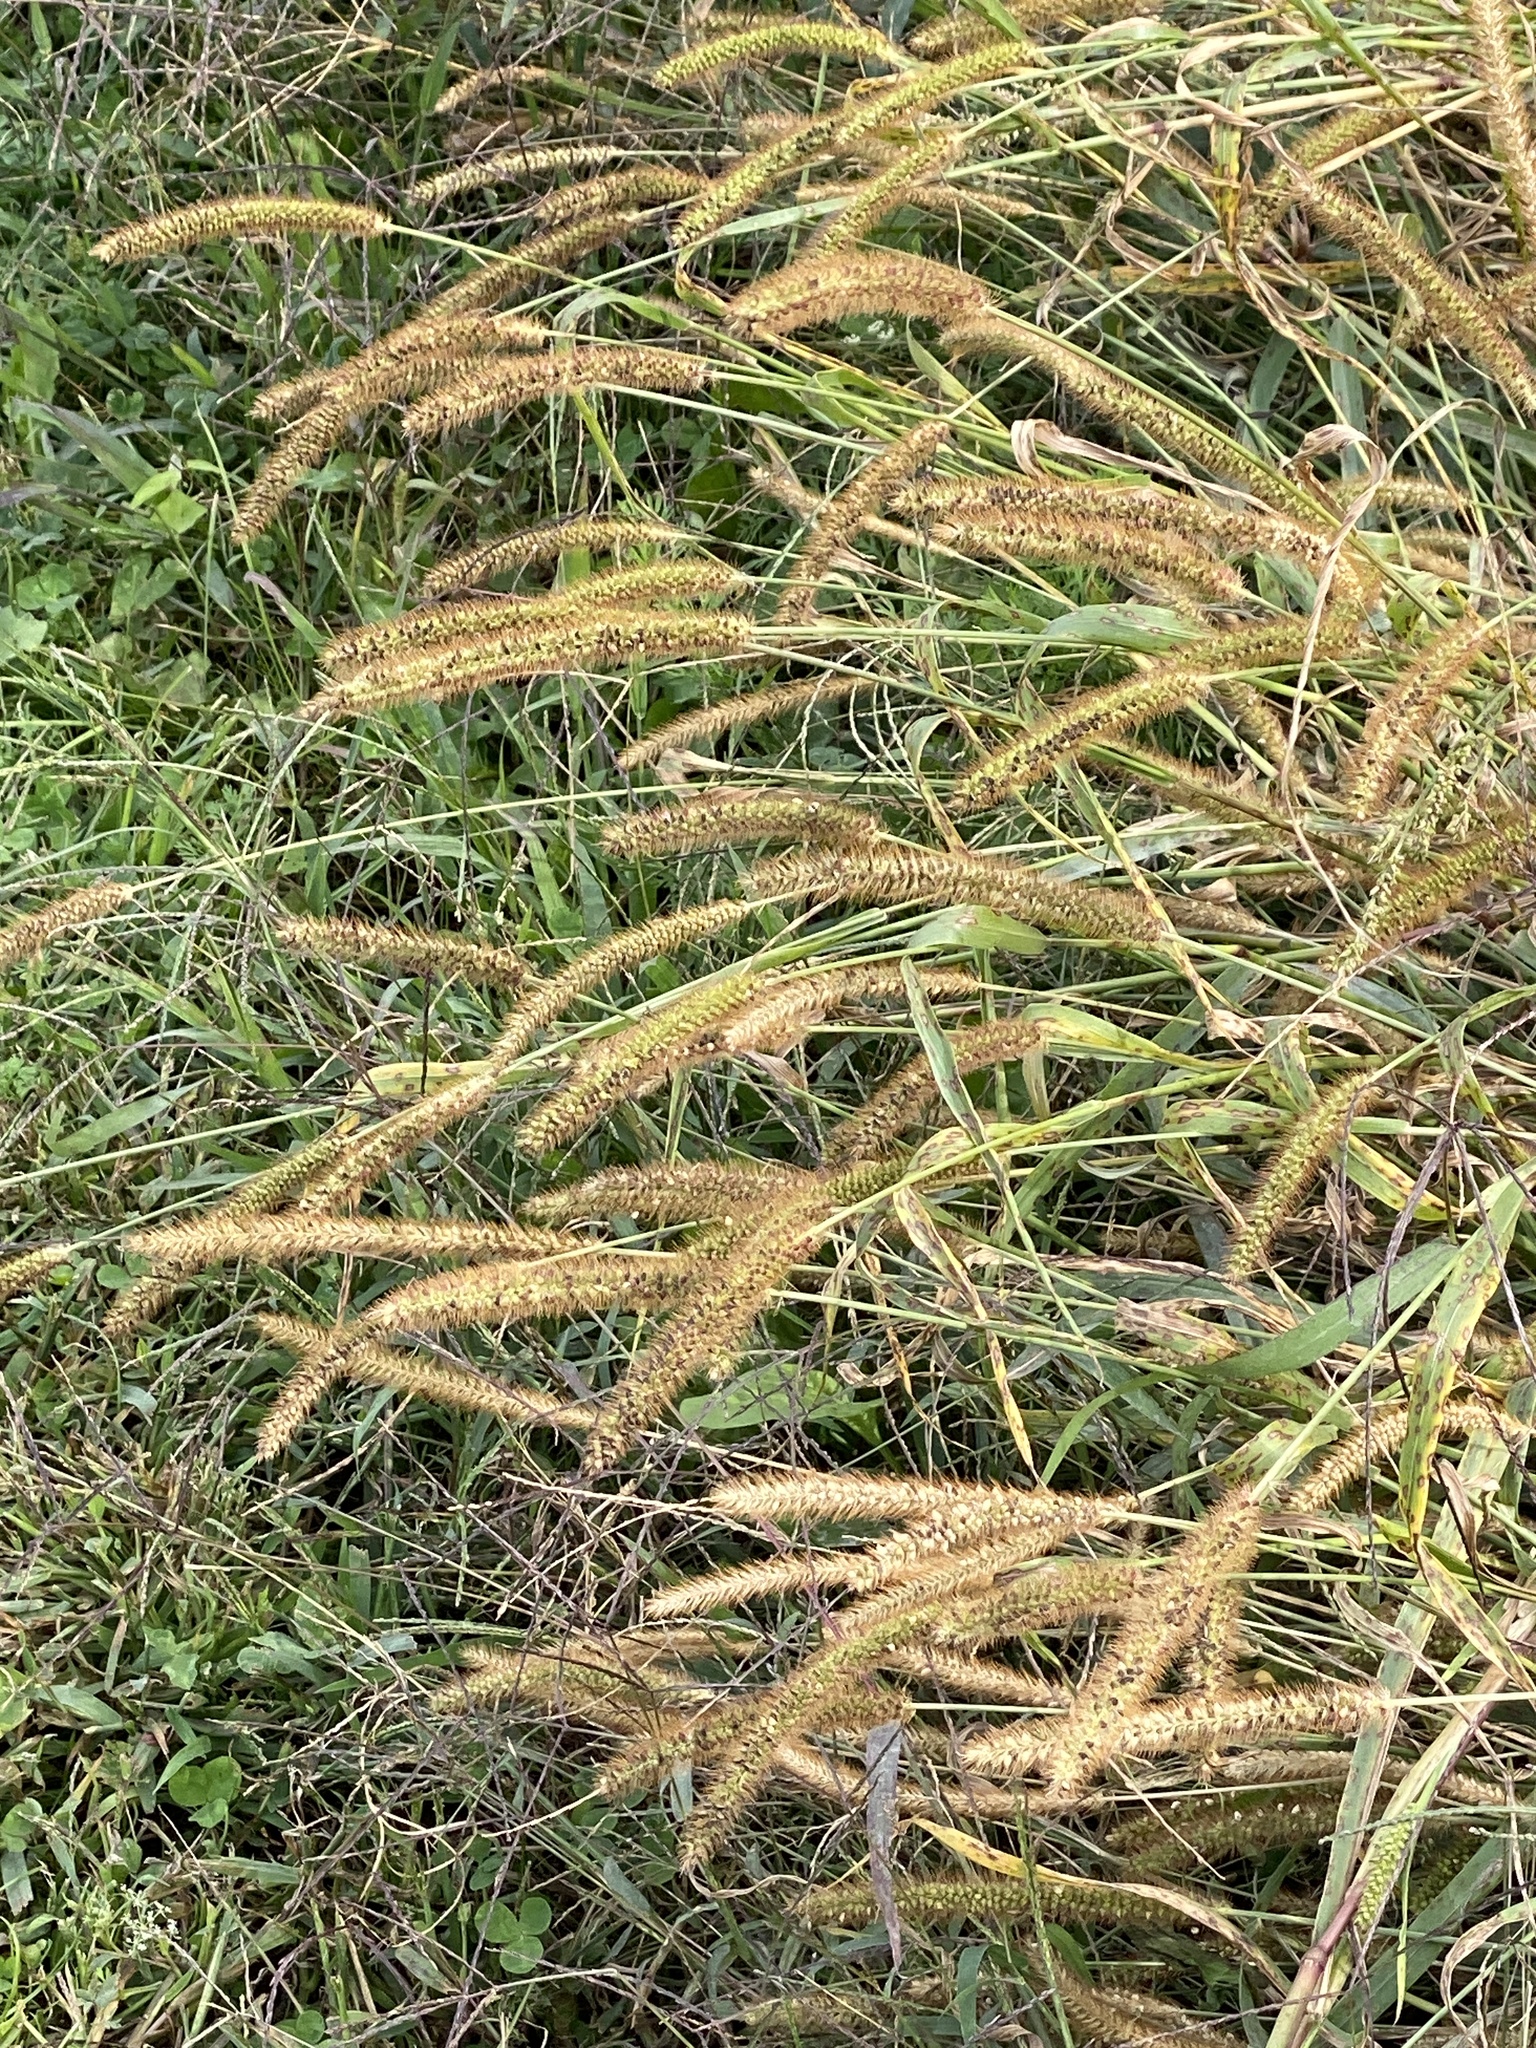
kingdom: Plantae
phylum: Tracheophyta
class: Liliopsida
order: Poales
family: Poaceae
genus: Setaria
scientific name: Setaria pumila
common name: Yellow bristle-grass
